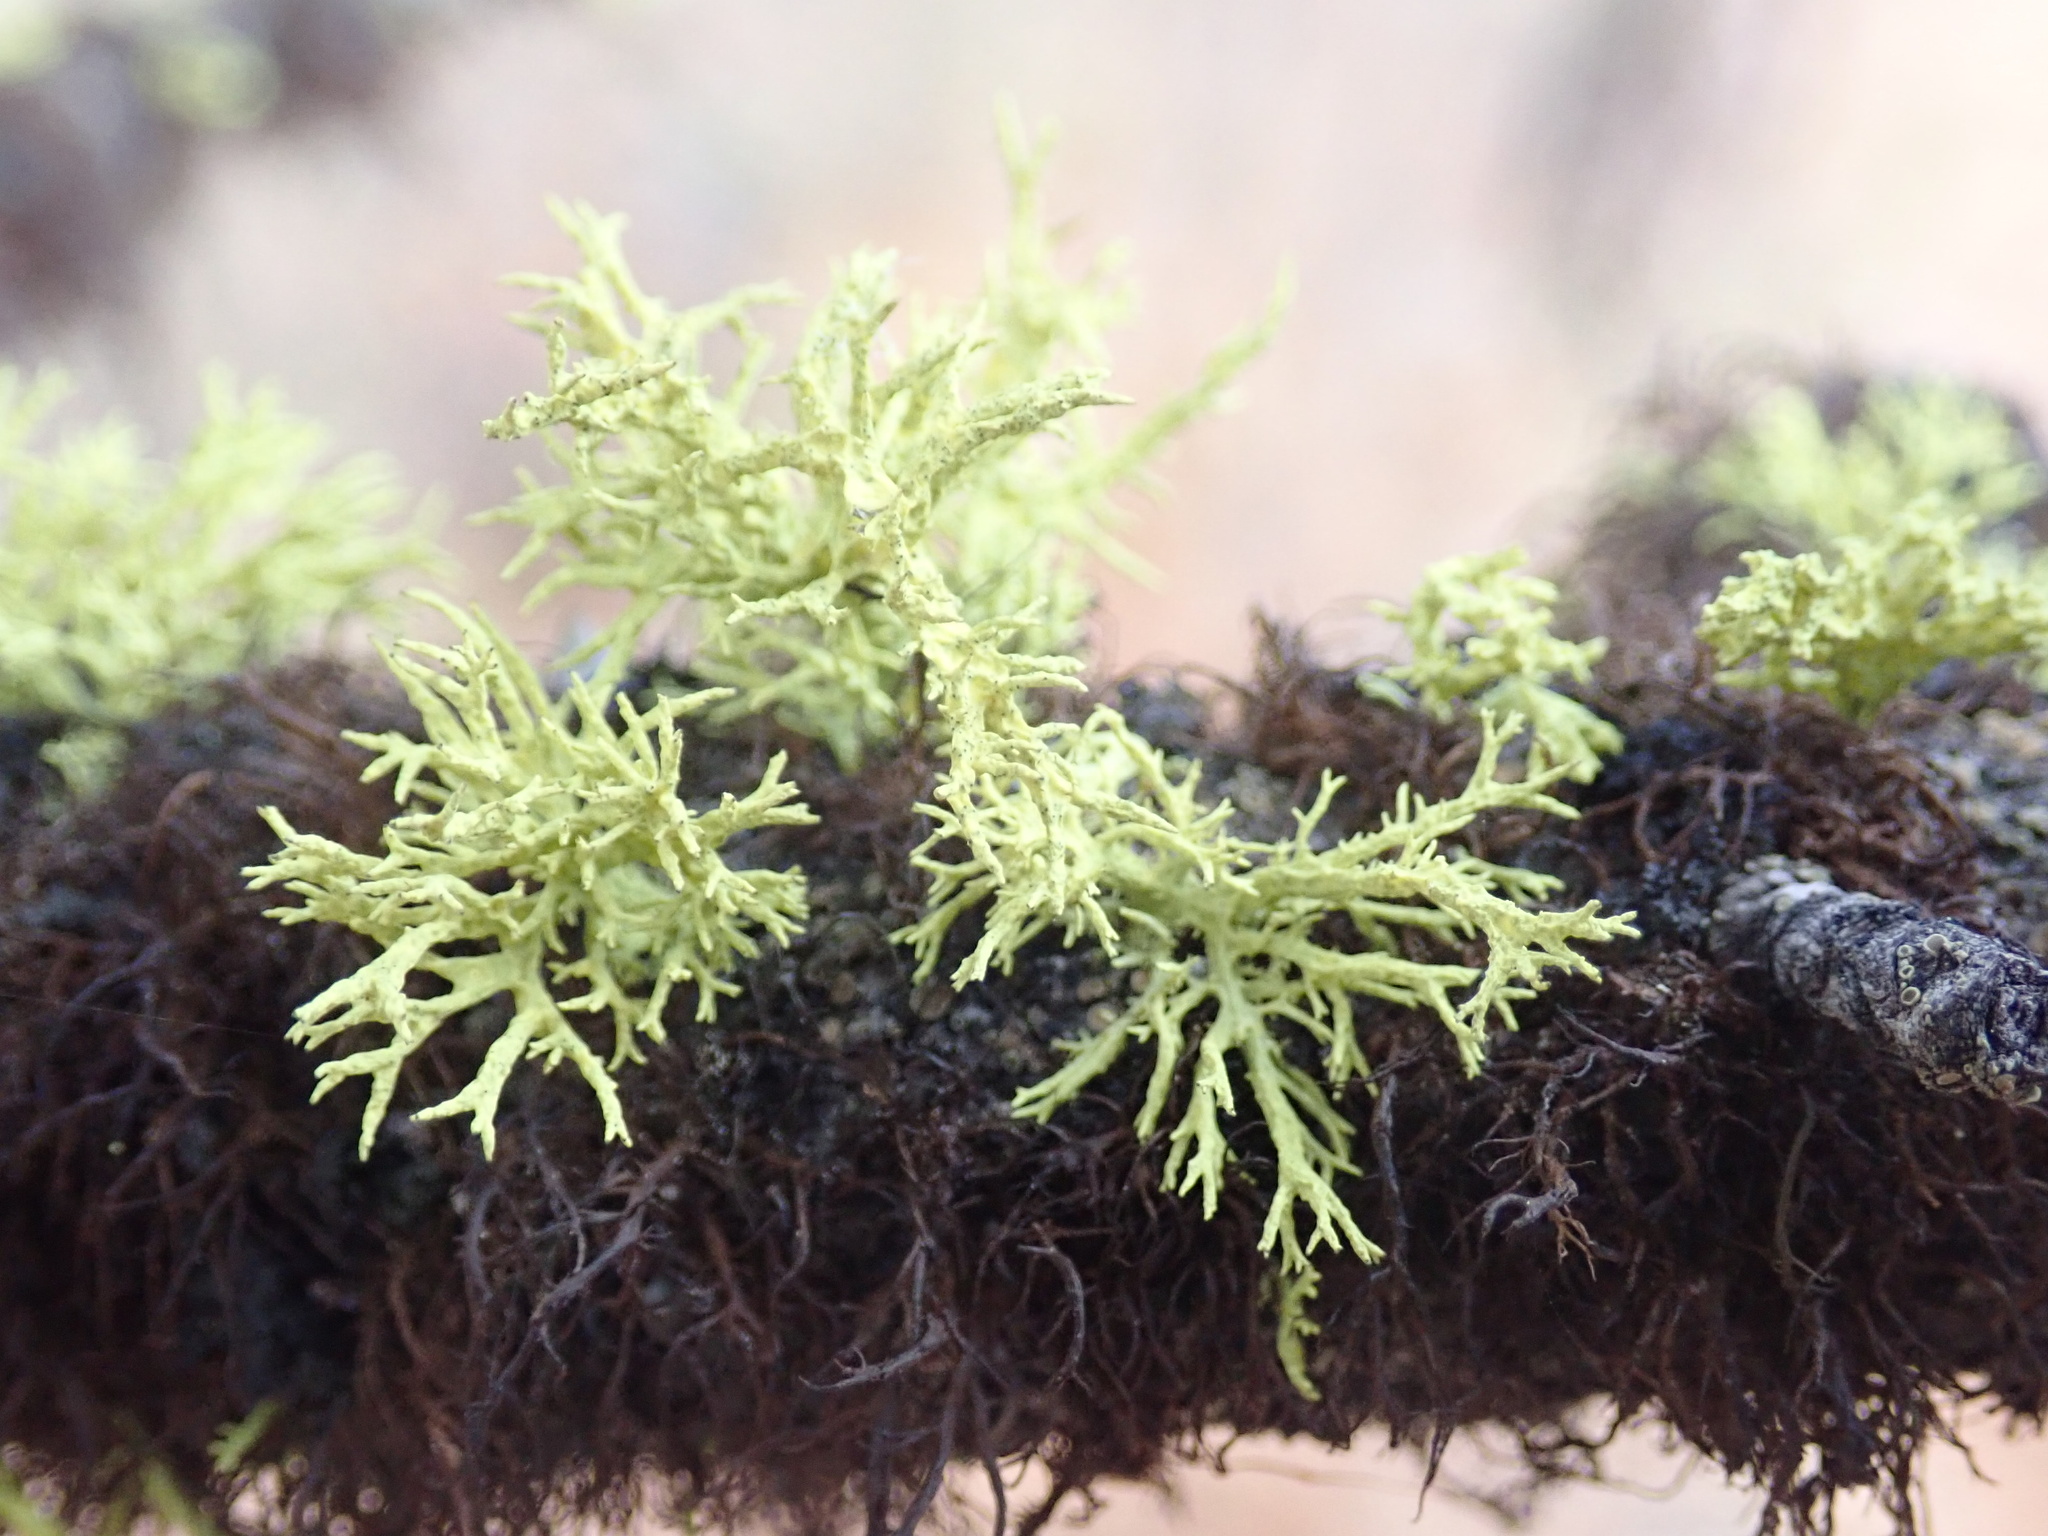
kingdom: Fungi
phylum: Ascomycota
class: Lecanoromycetes
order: Lecanorales
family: Parmeliaceae
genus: Letharia
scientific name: Letharia vulpina
